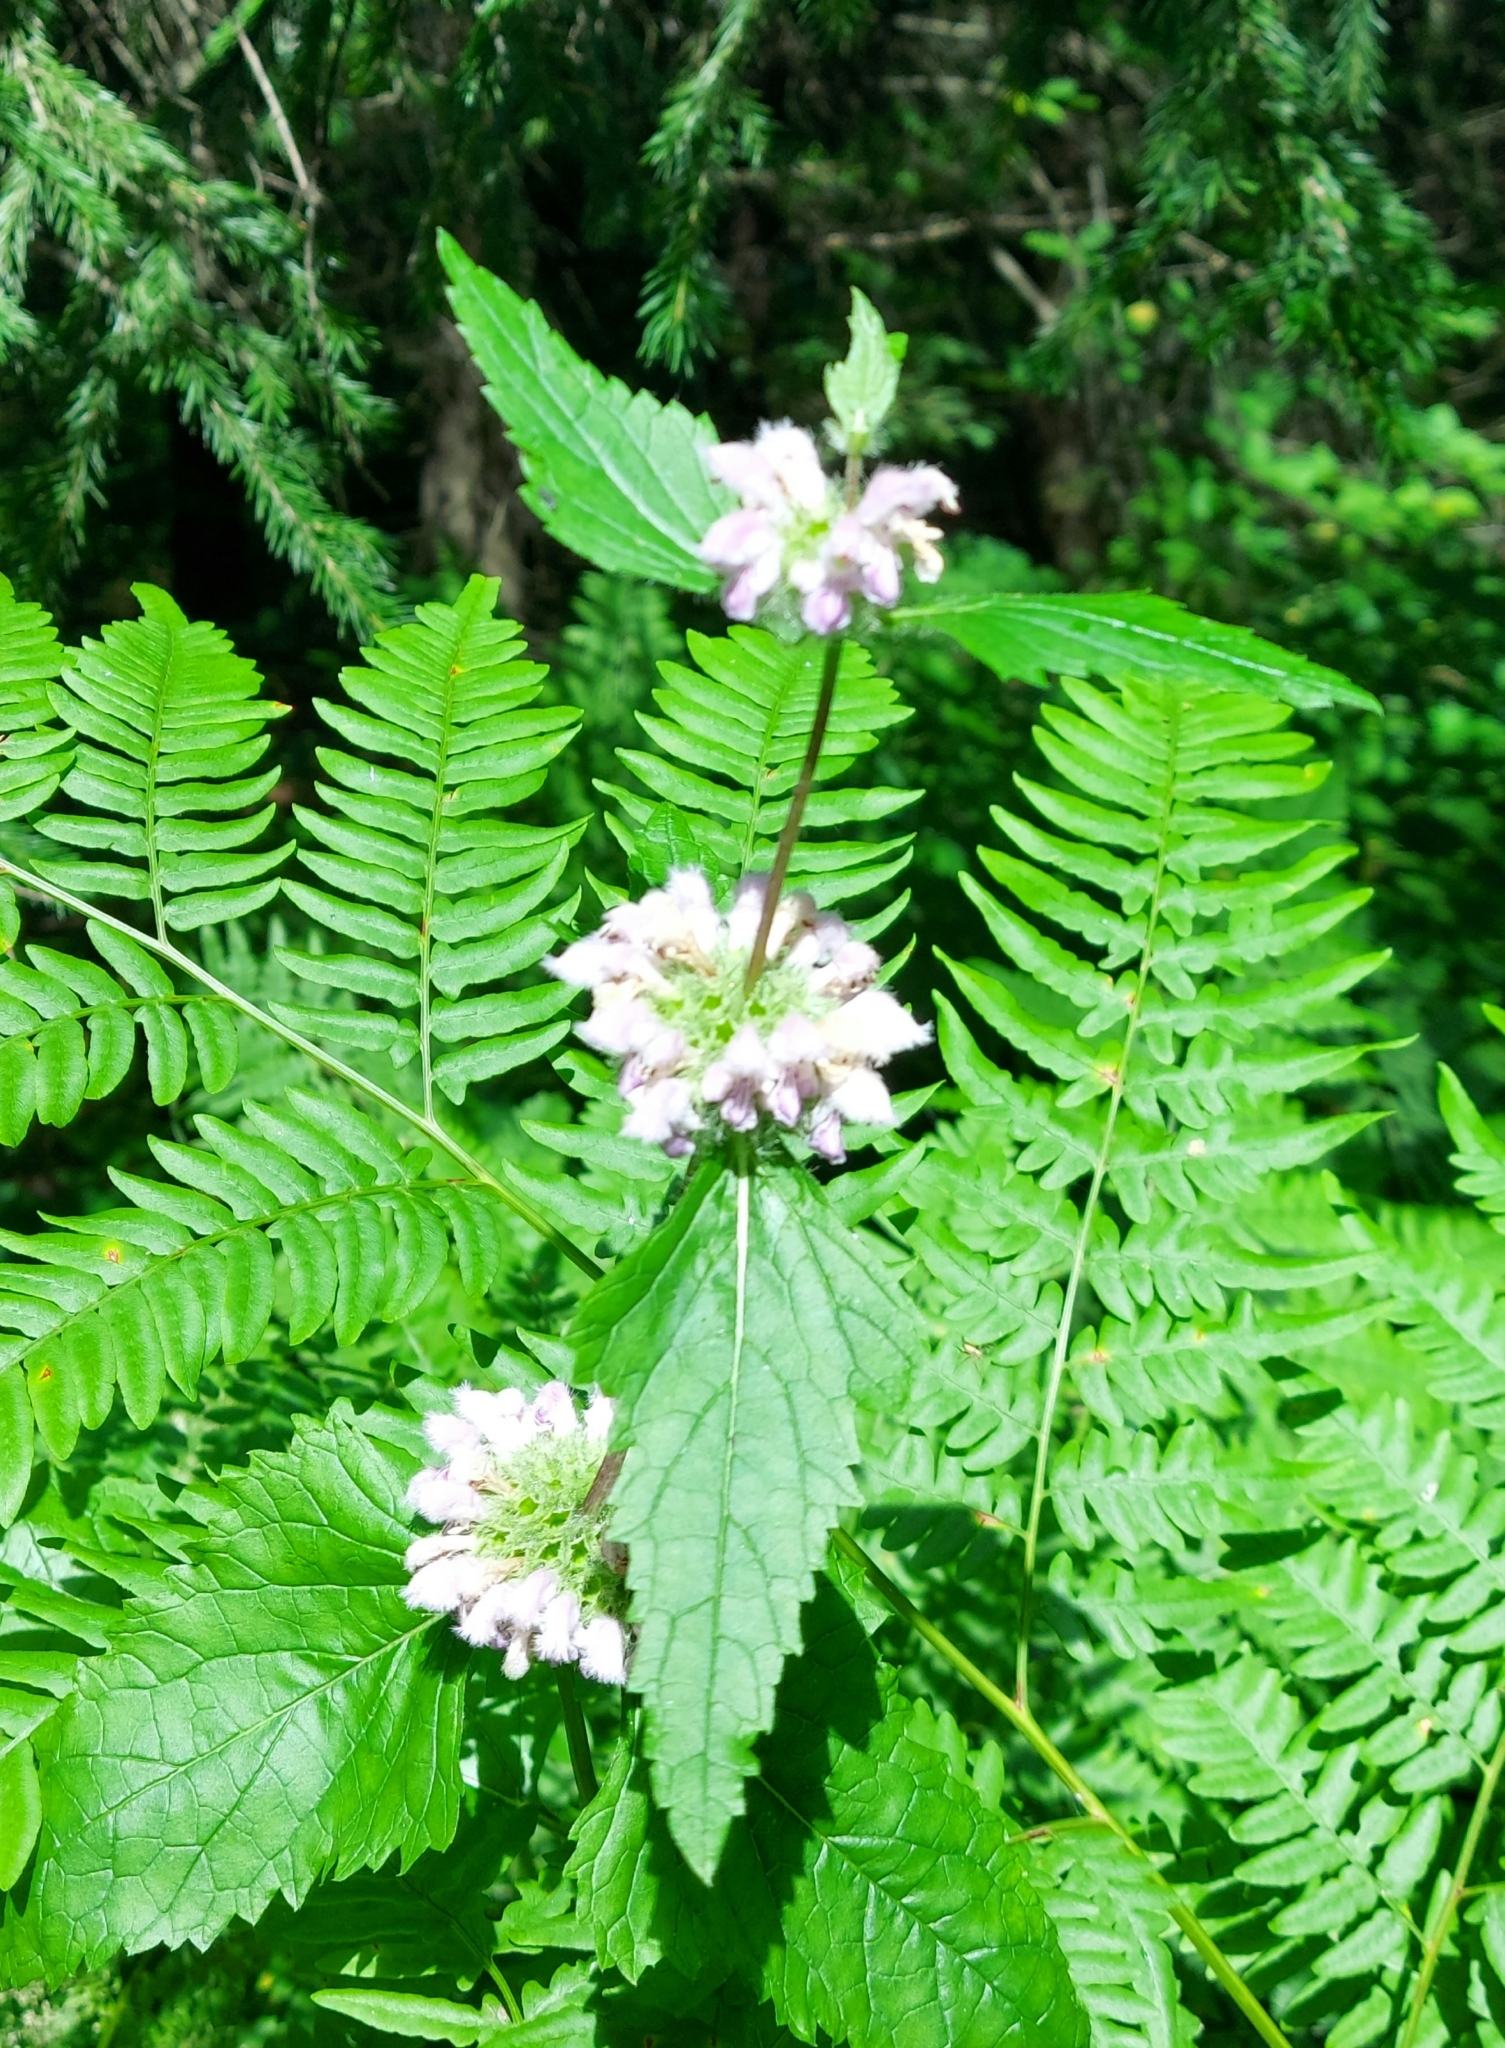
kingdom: Plantae
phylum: Tracheophyta
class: Magnoliopsida
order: Lamiales
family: Lamiaceae
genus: Phlomoides
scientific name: Phlomoides tuberosa
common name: Tuberous jerusalem sage
